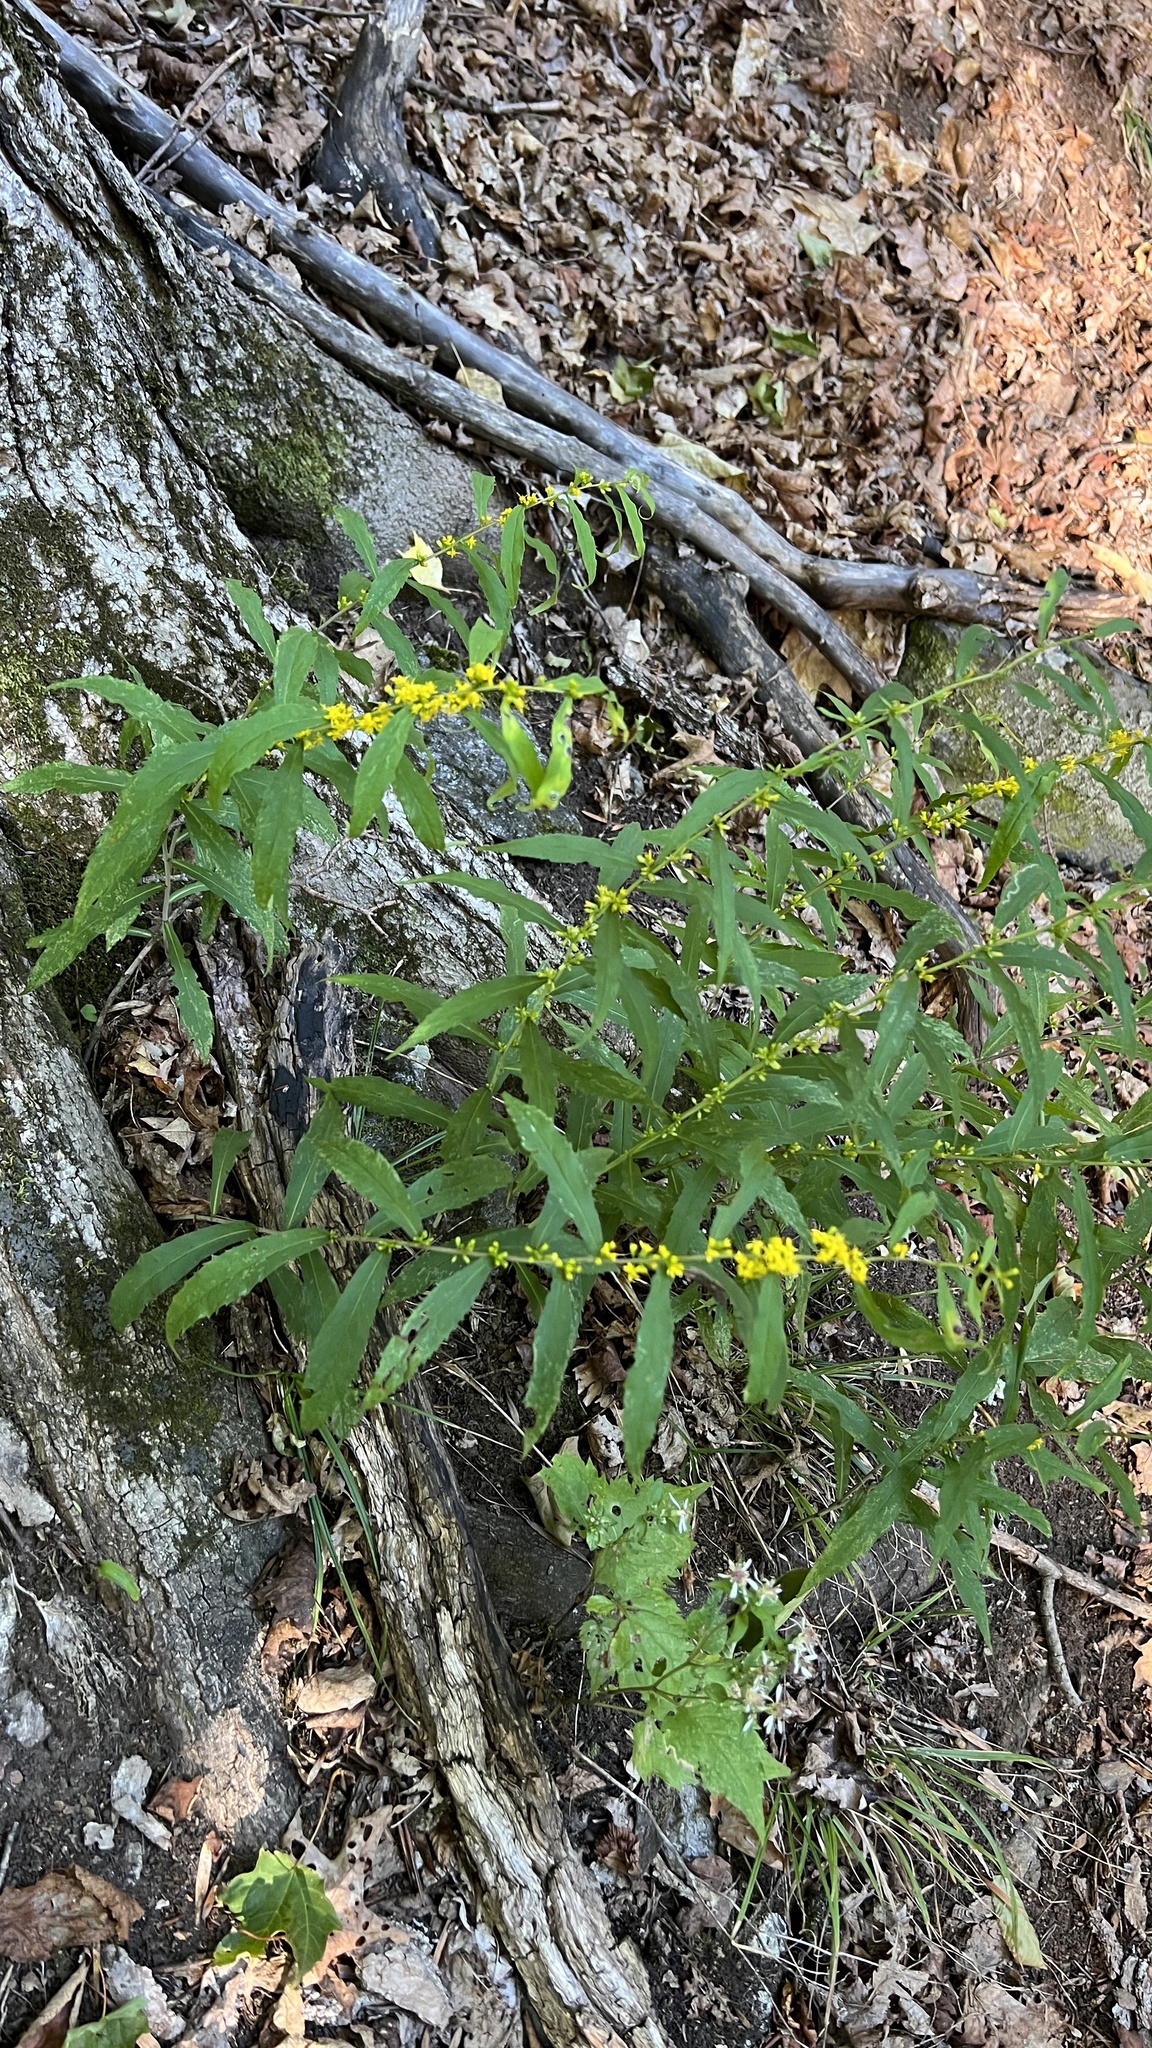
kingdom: Plantae
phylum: Tracheophyta
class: Magnoliopsida
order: Asterales
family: Asteraceae
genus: Solidago
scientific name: Solidago caesia
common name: Woodland goldenrod
